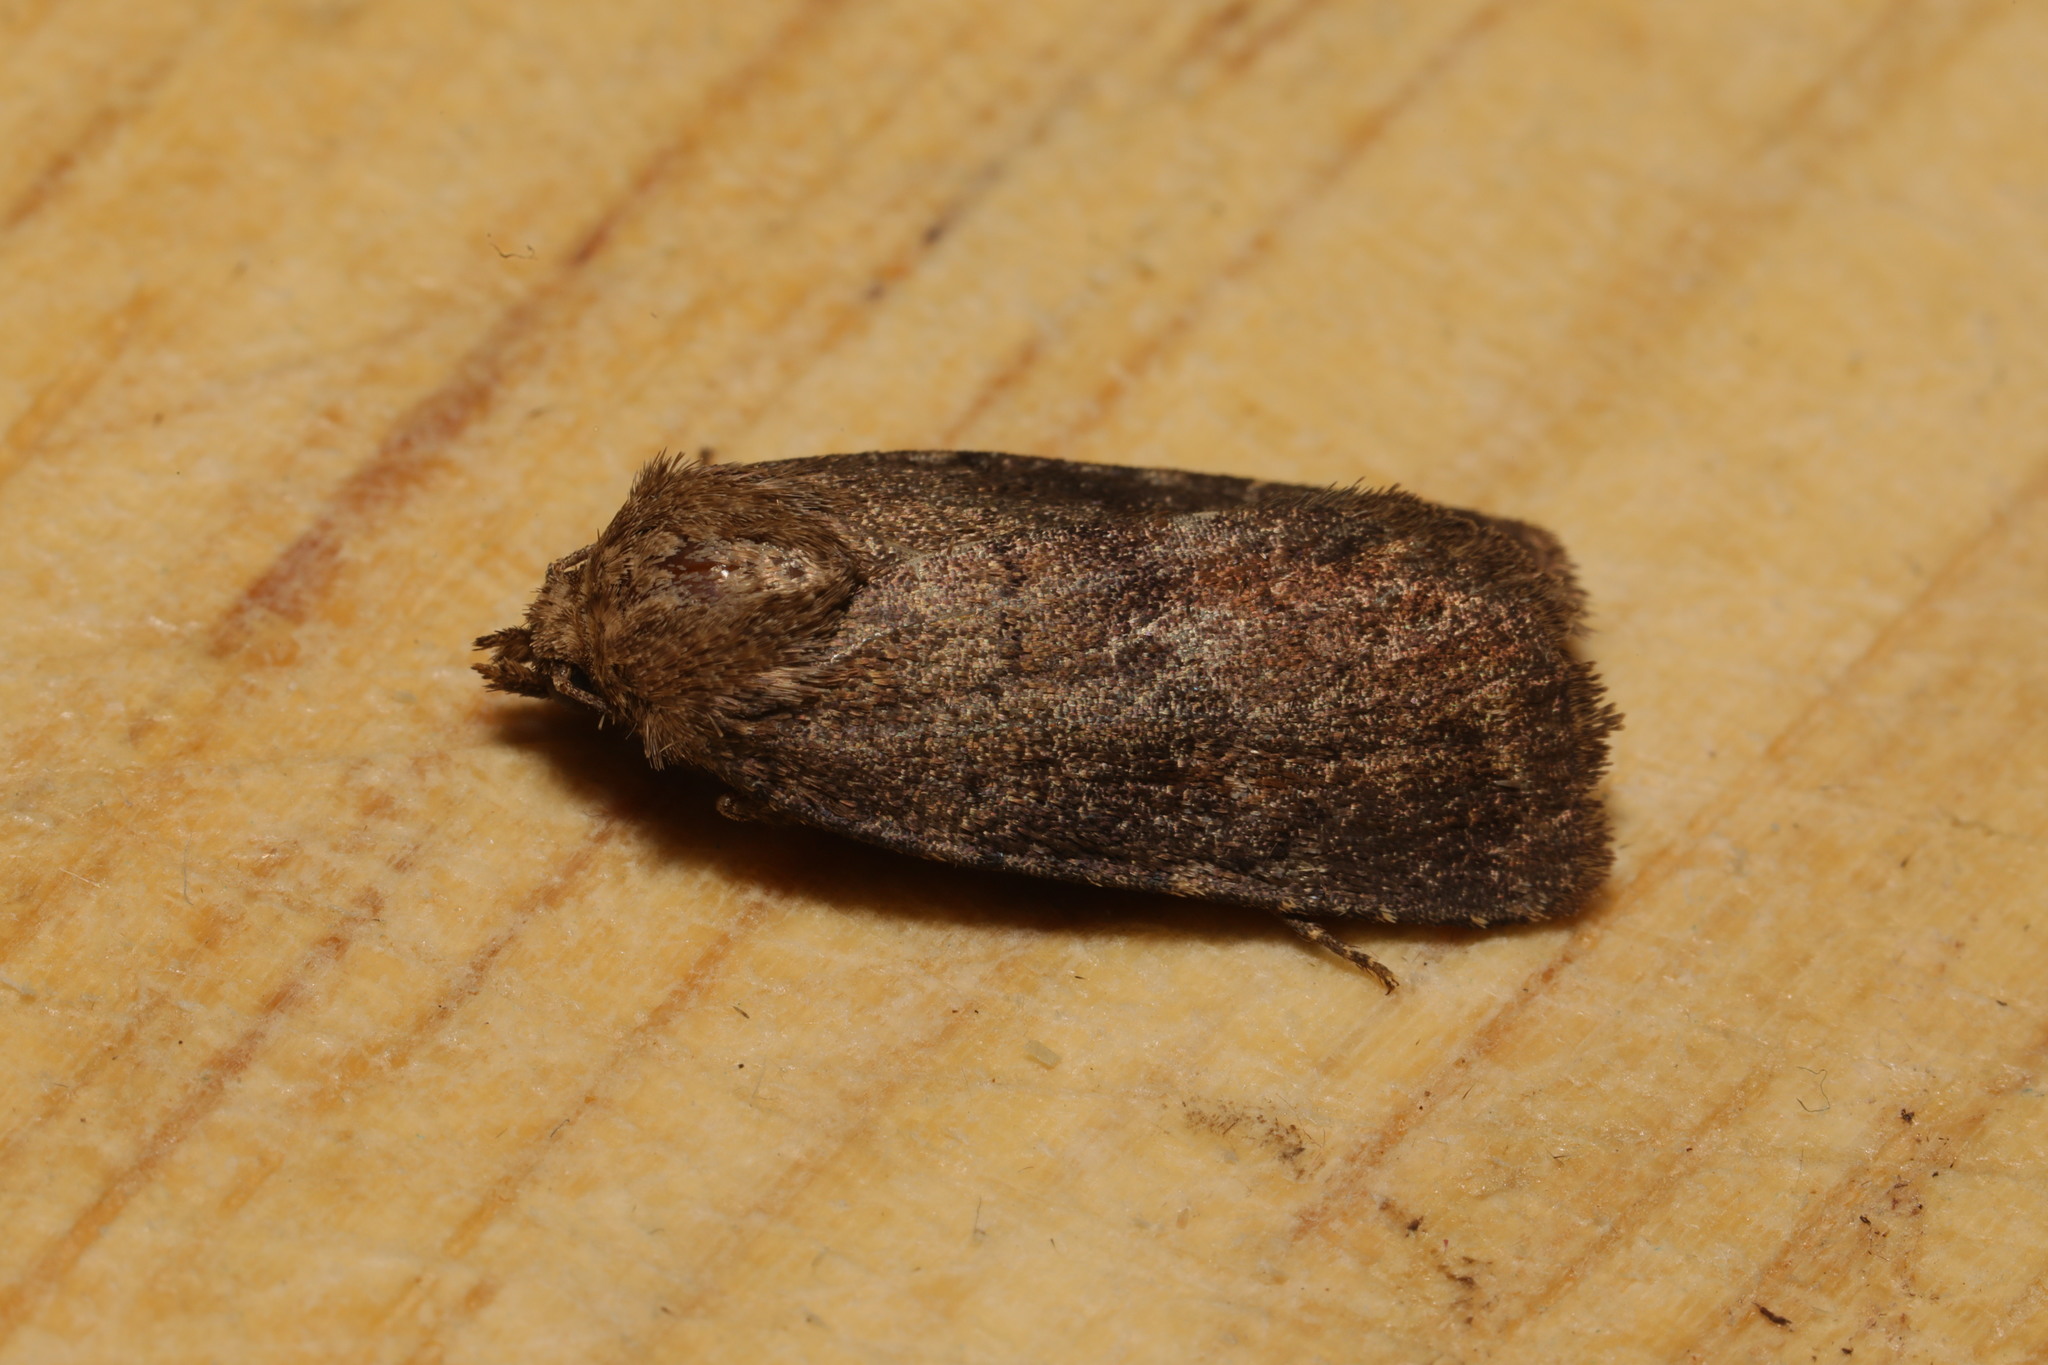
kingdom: Animalia
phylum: Arthropoda
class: Insecta
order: Lepidoptera
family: Noctuidae
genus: Charanyca
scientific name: Charanyca ferruginea
